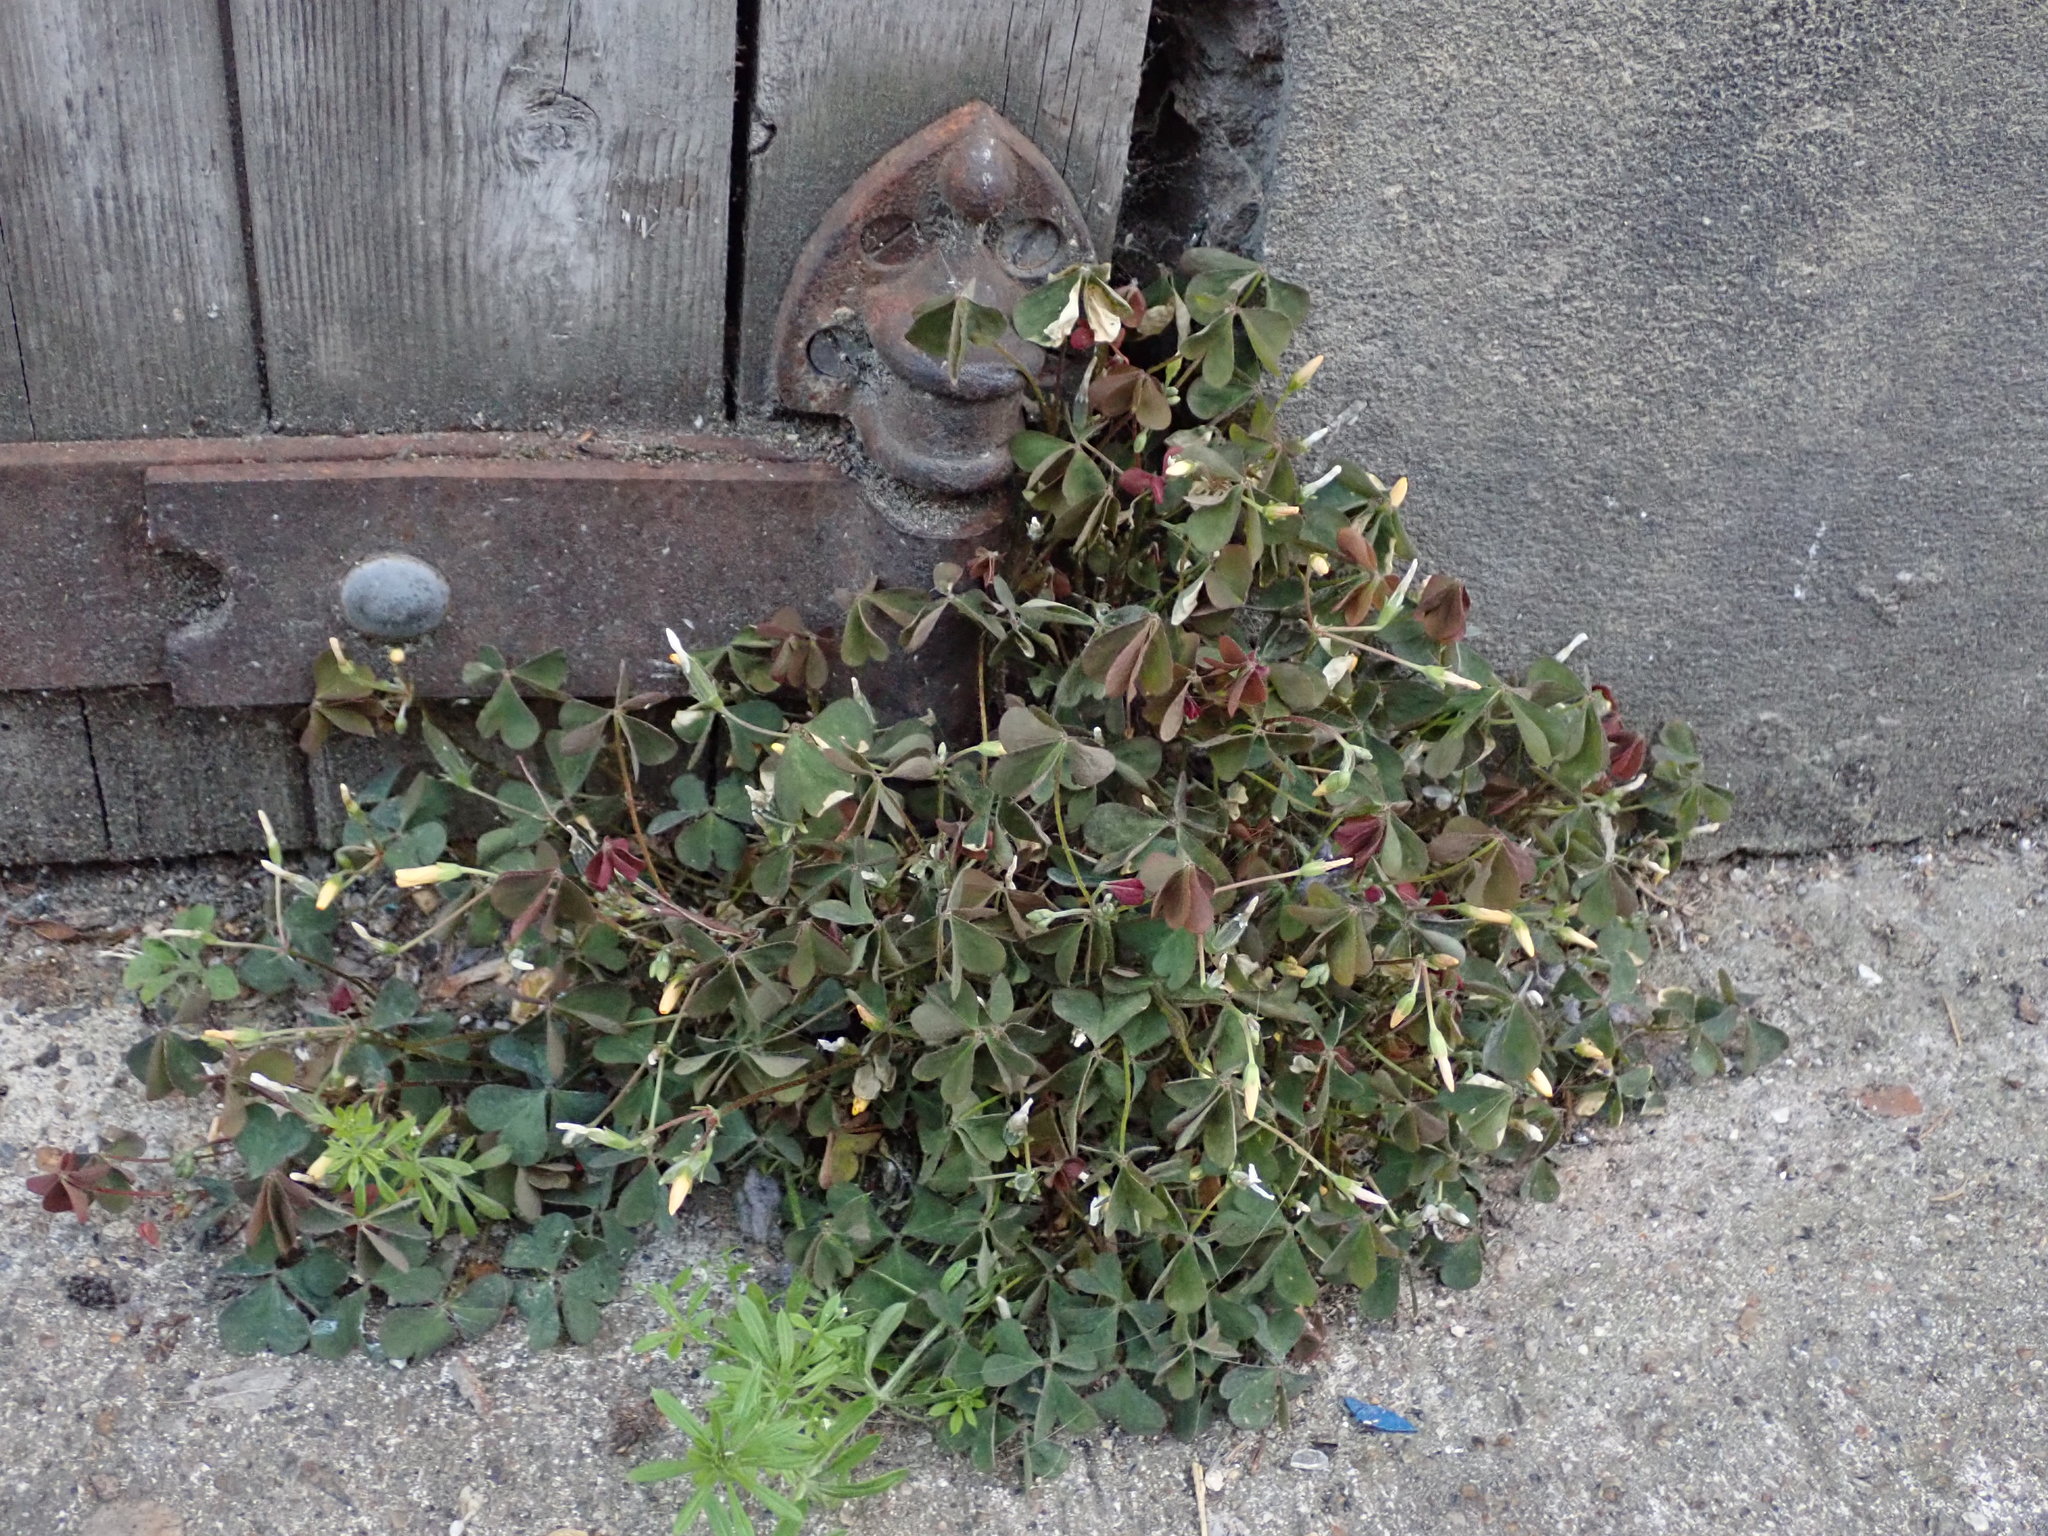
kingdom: Plantae
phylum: Tracheophyta
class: Magnoliopsida
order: Oxalidales
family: Oxalidaceae
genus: Oxalis
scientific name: Oxalis corniculata
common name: Procumbent yellow-sorrel
